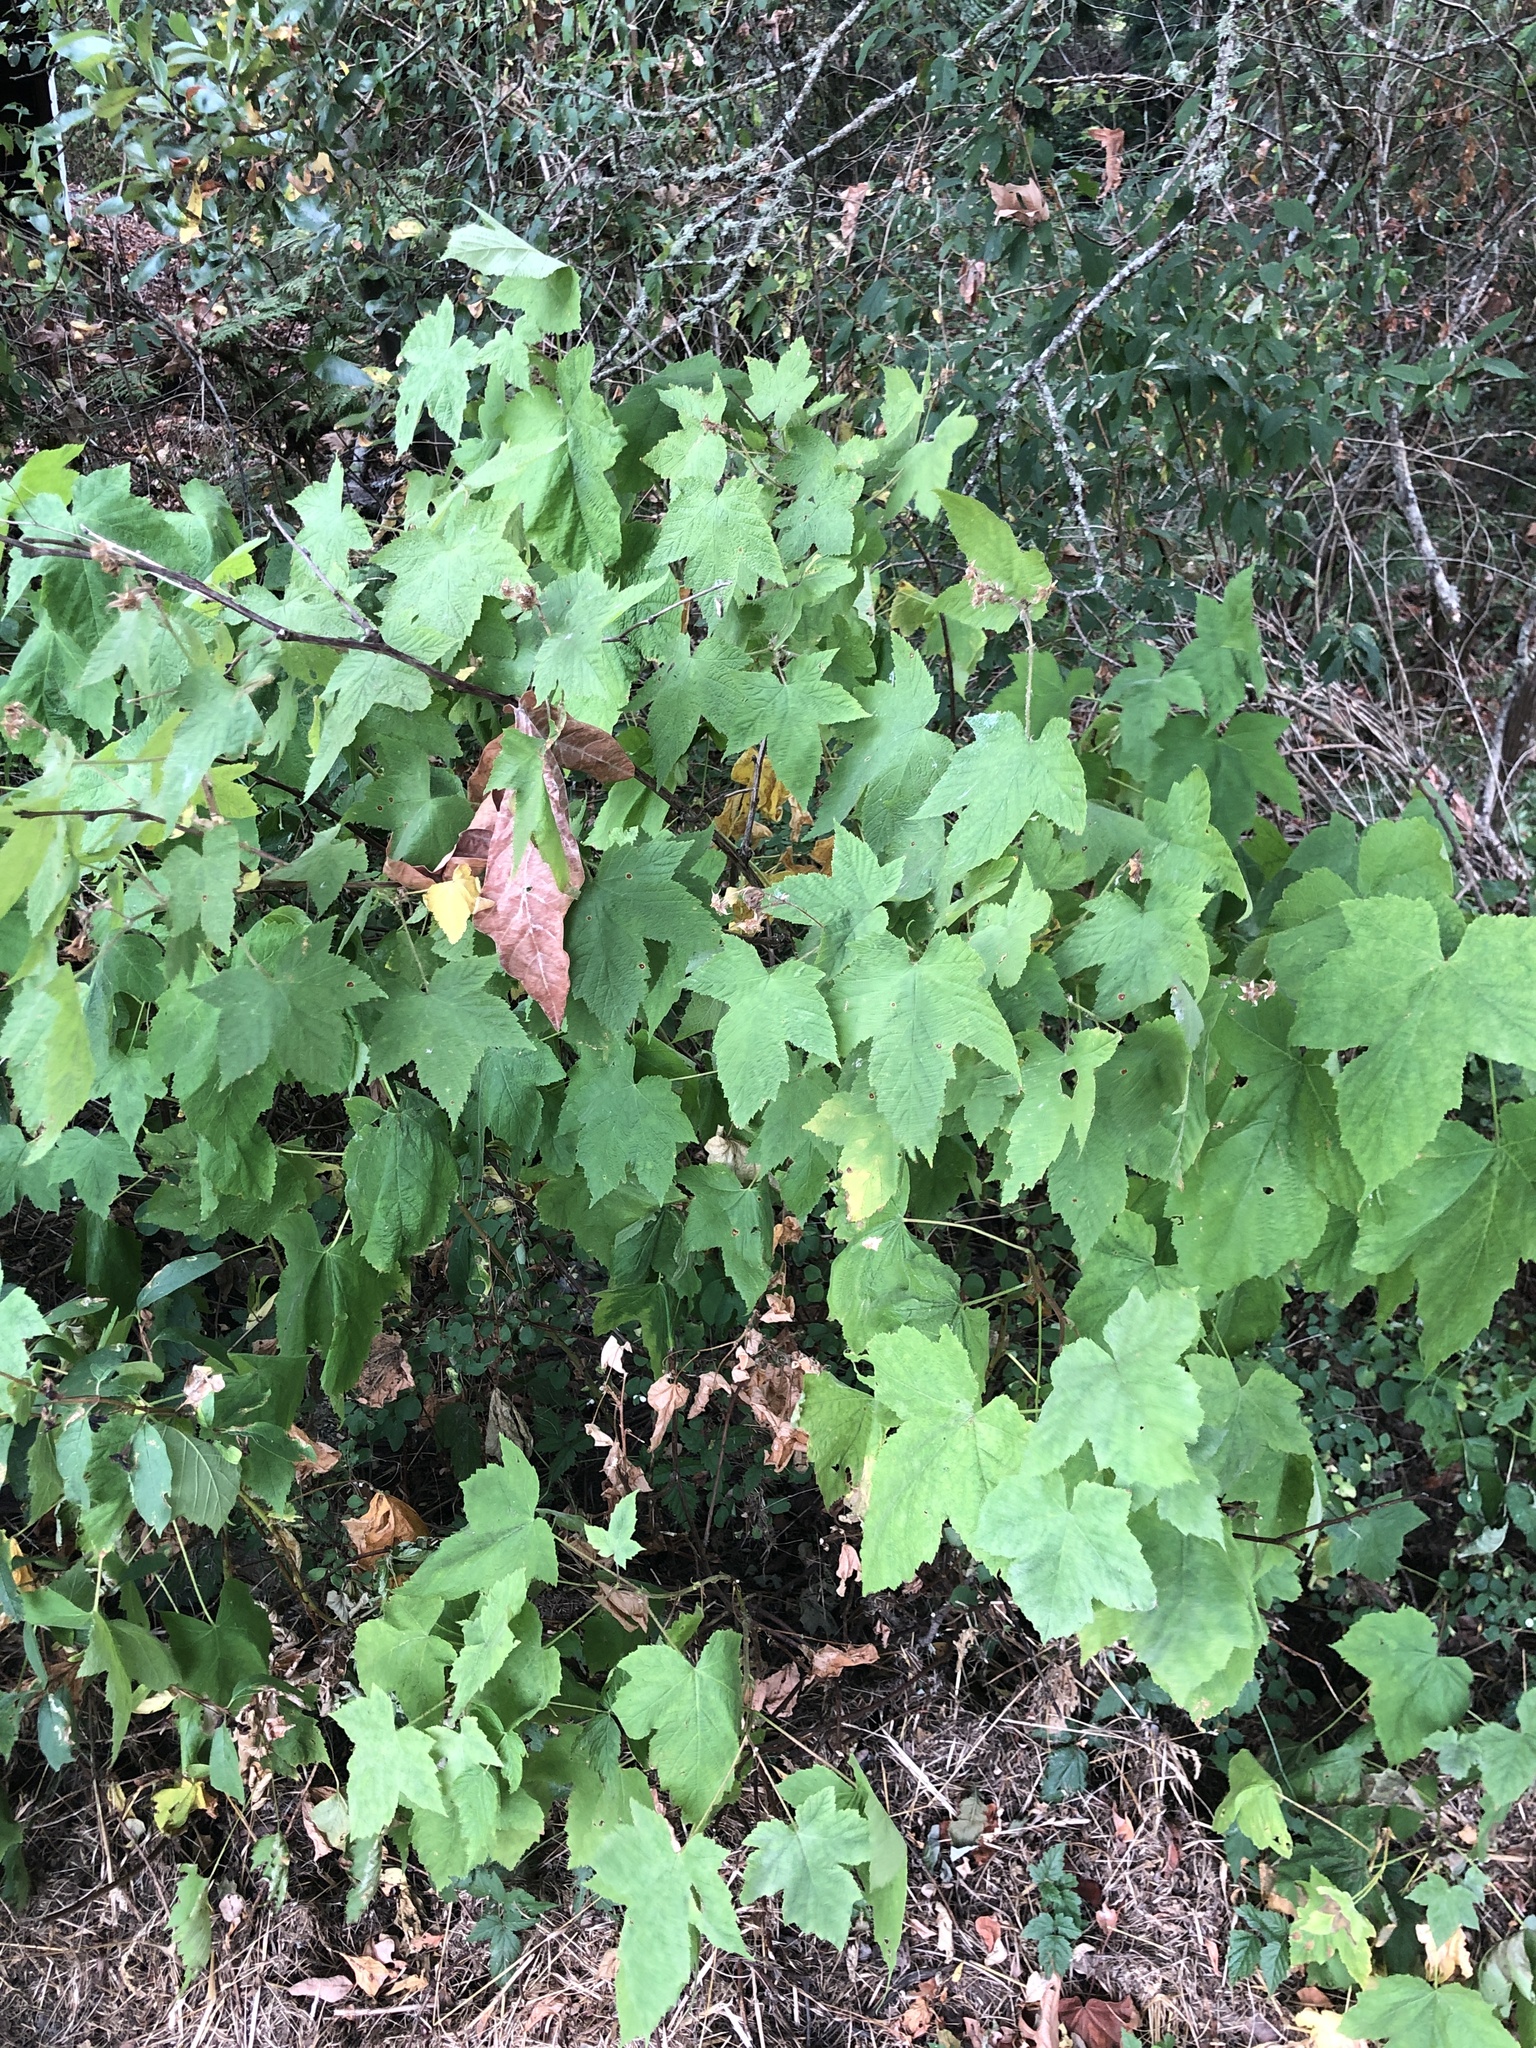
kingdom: Plantae
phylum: Tracheophyta
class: Magnoliopsida
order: Rosales
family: Rosaceae
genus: Rubus
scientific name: Rubus parviflorus
